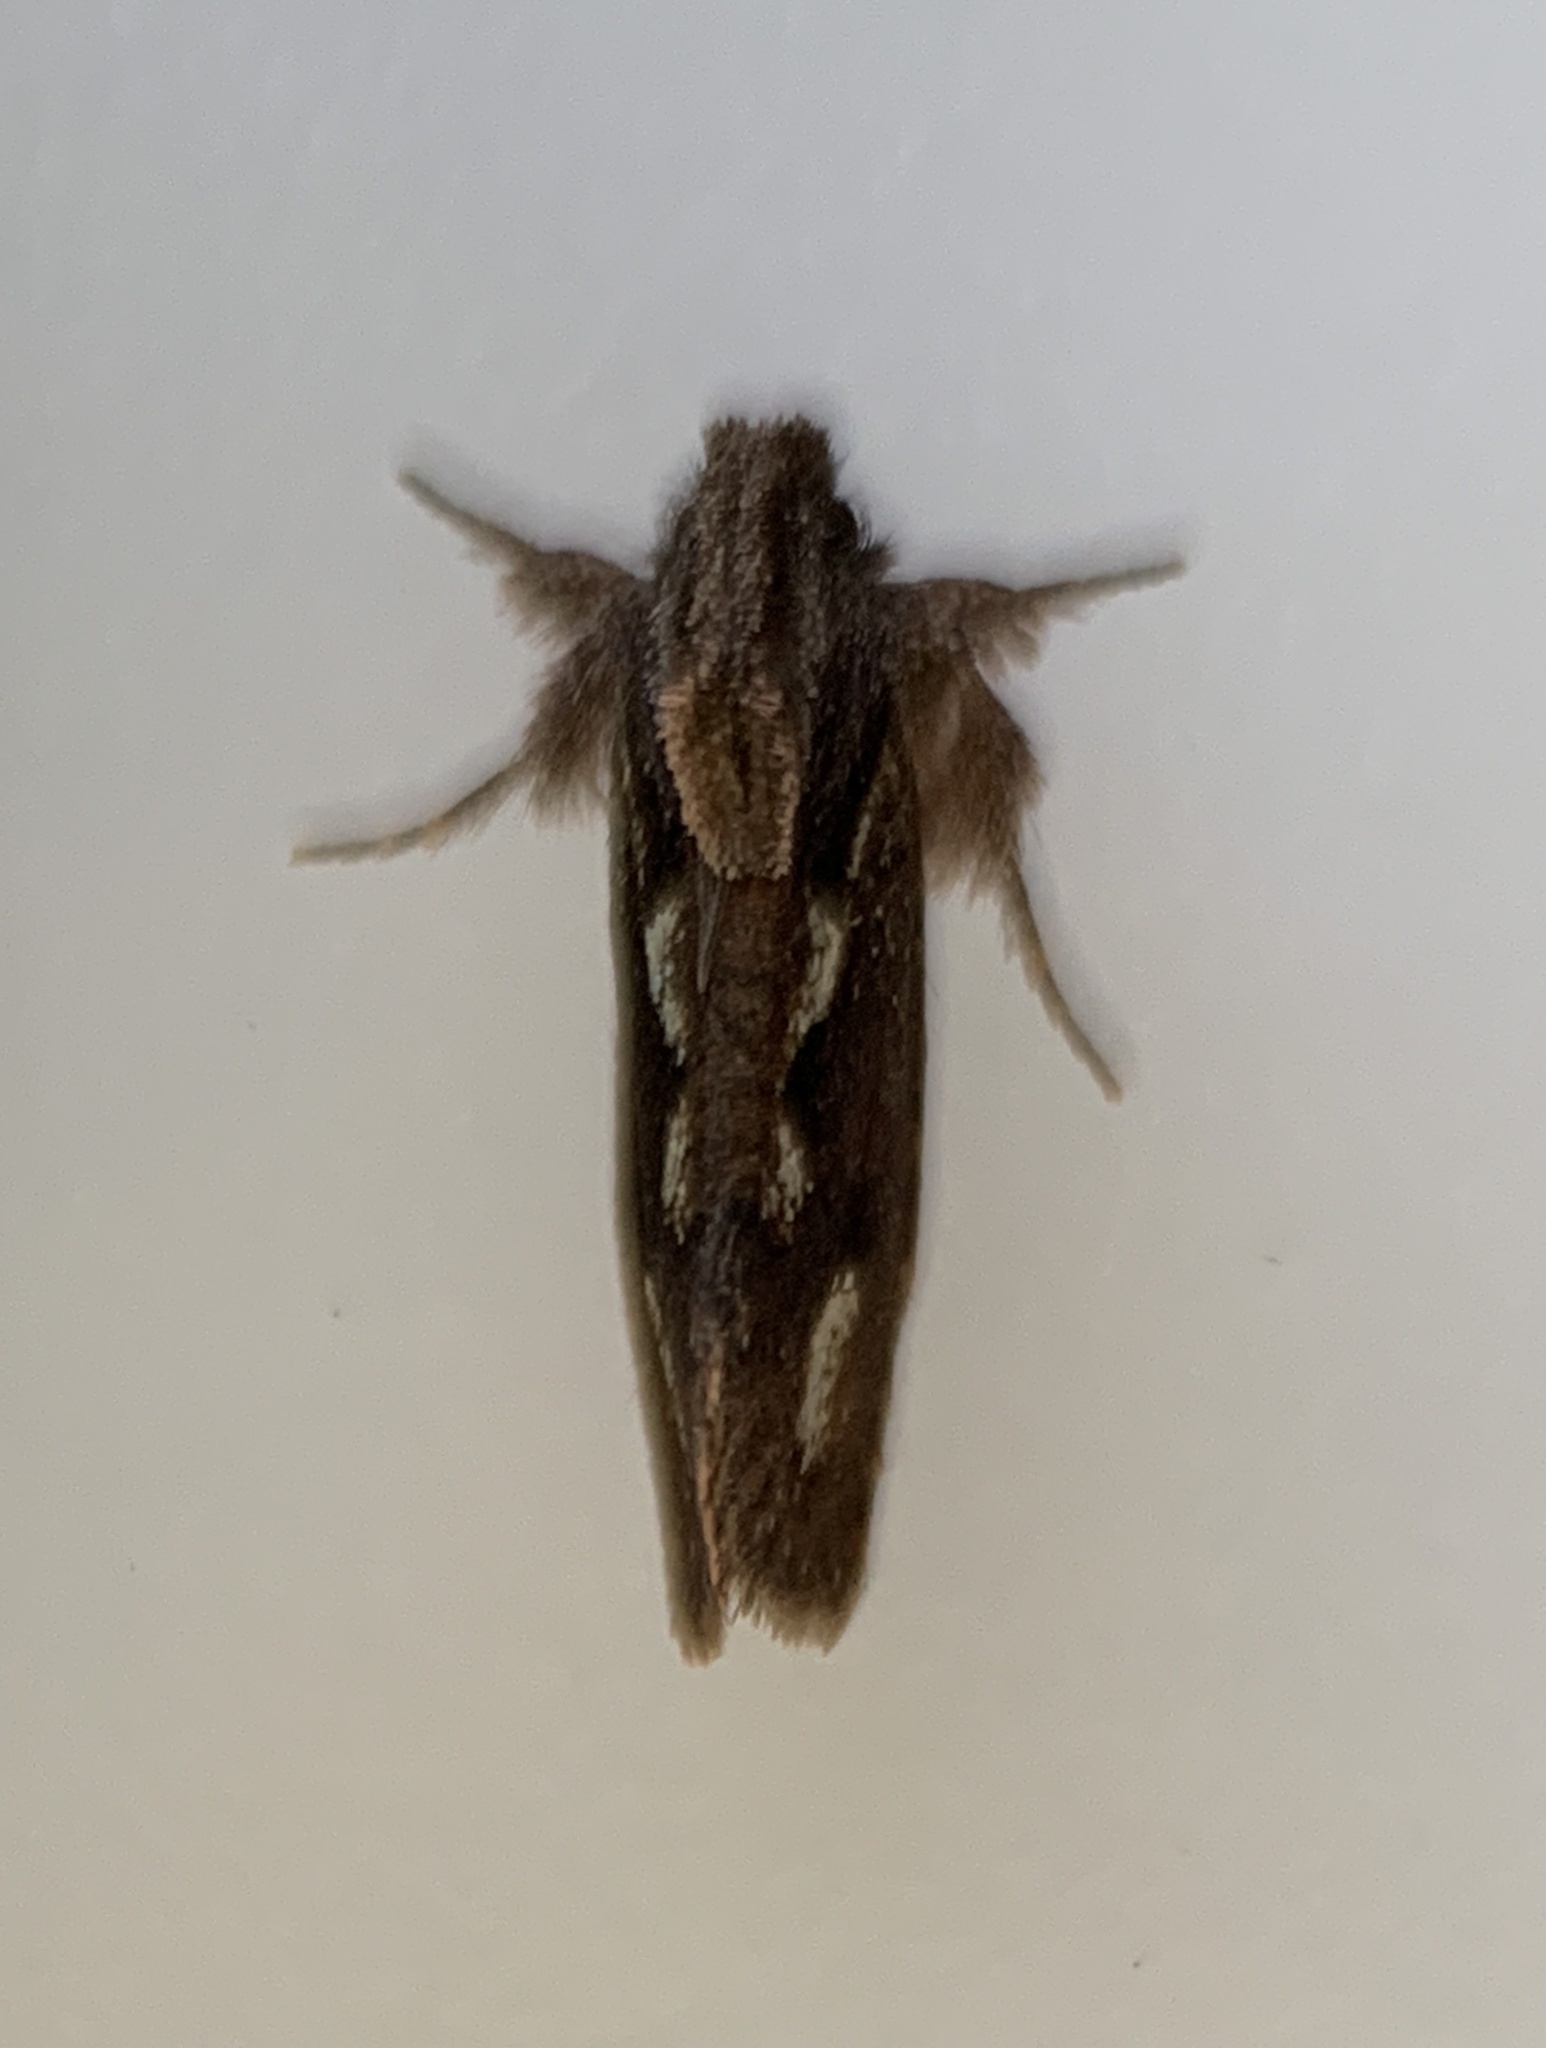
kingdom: Animalia
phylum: Arthropoda
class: Insecta
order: Lepidoptera
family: Tineidae
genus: Acrolophus
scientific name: Acrolophus walsinghami
